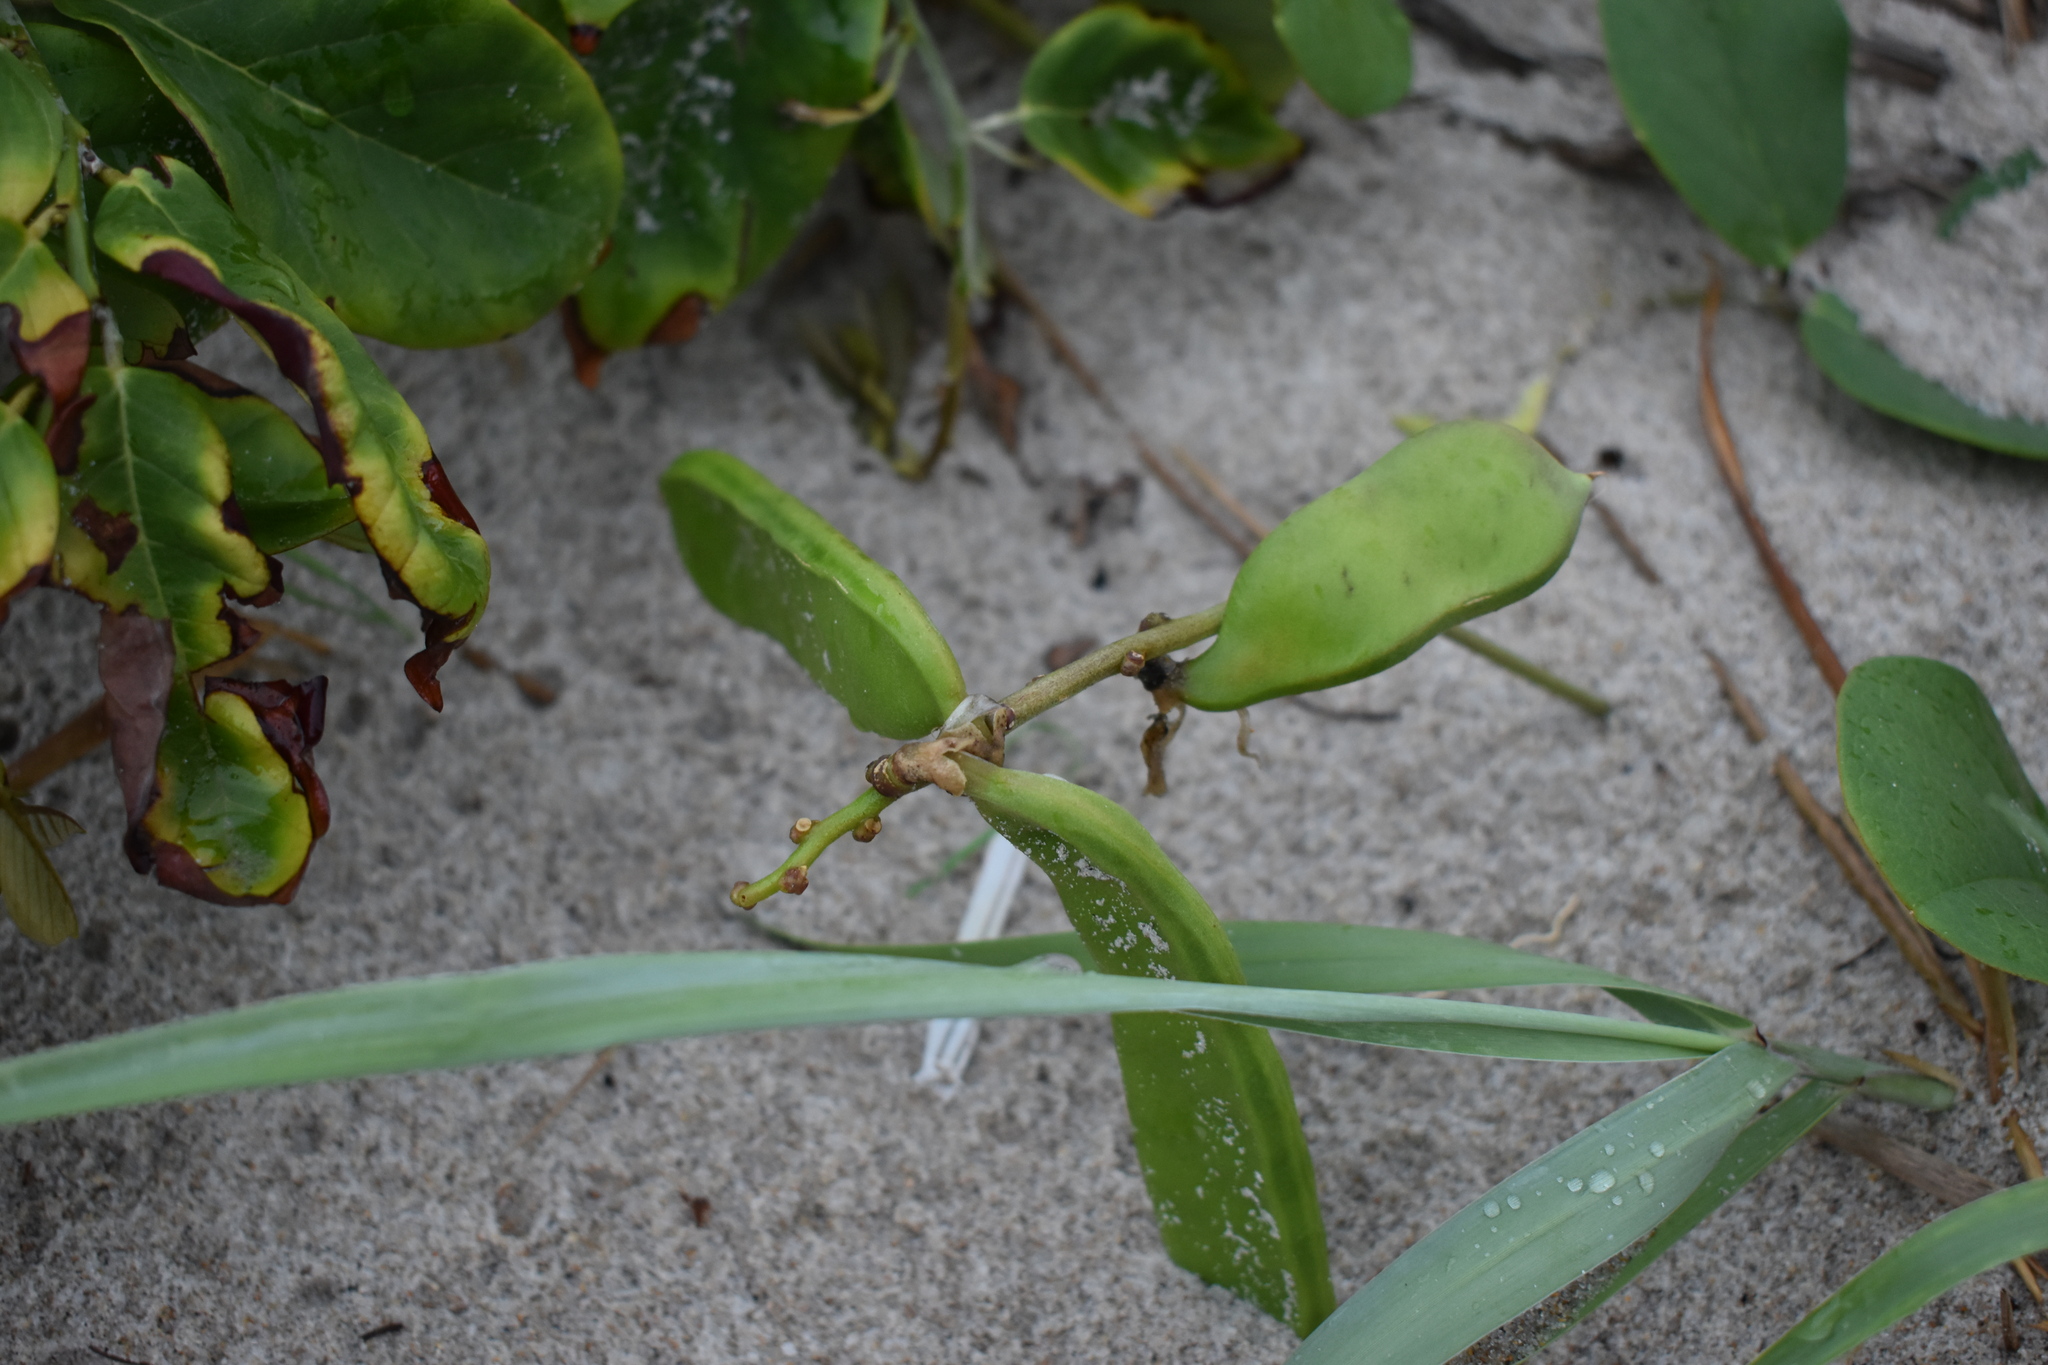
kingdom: Plantae
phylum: Tracheophyta
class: Magnoliopsida
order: Fabales
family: Fabaceae
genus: Canavalia
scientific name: Canavalia rosea
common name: Beach-bean
